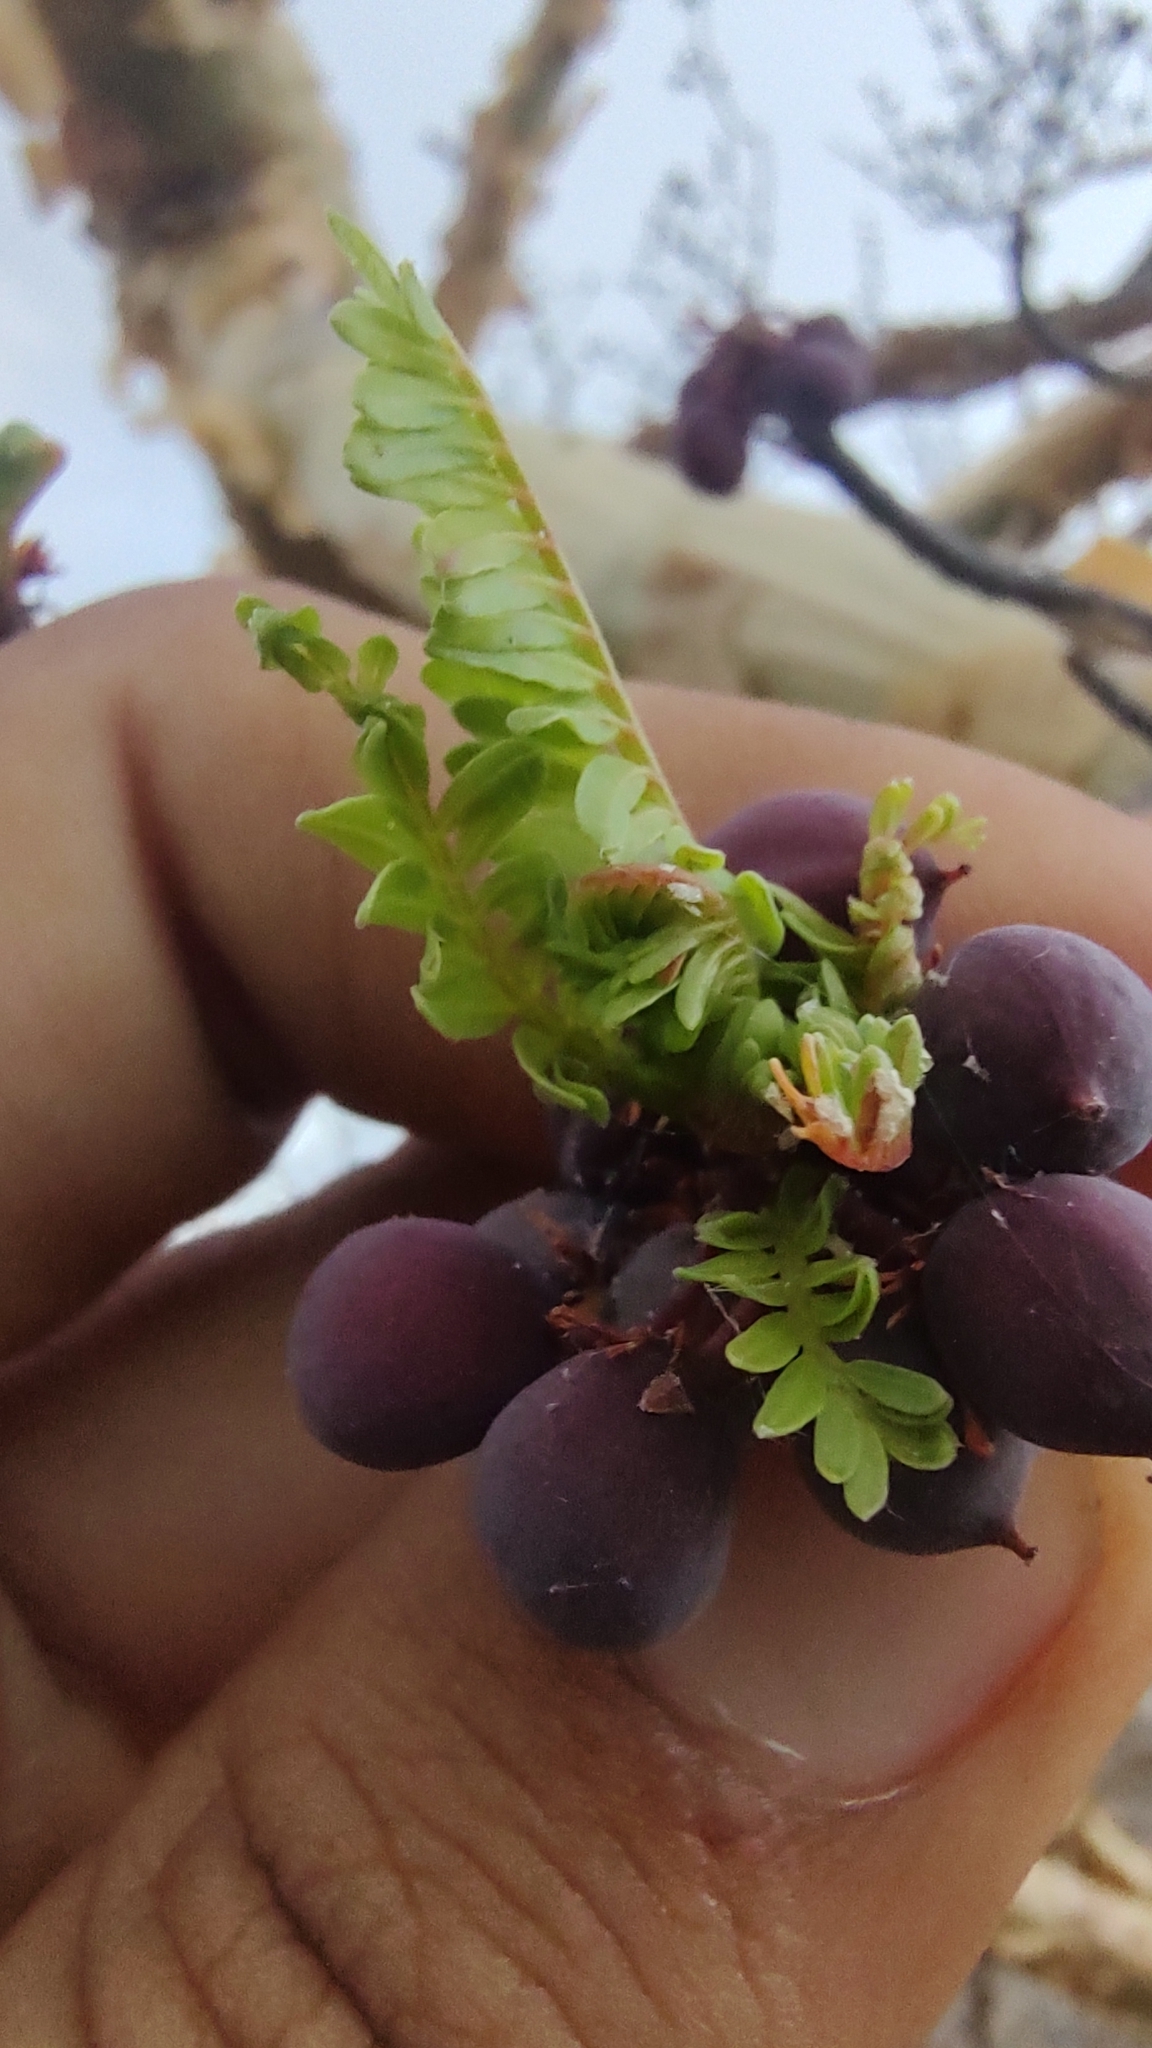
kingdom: Plantae
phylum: Tracheophyta
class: Magnoliopsida
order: Sapindales
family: Burseraceae
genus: Bursera
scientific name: Bursera microphylla
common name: Elephant tree
